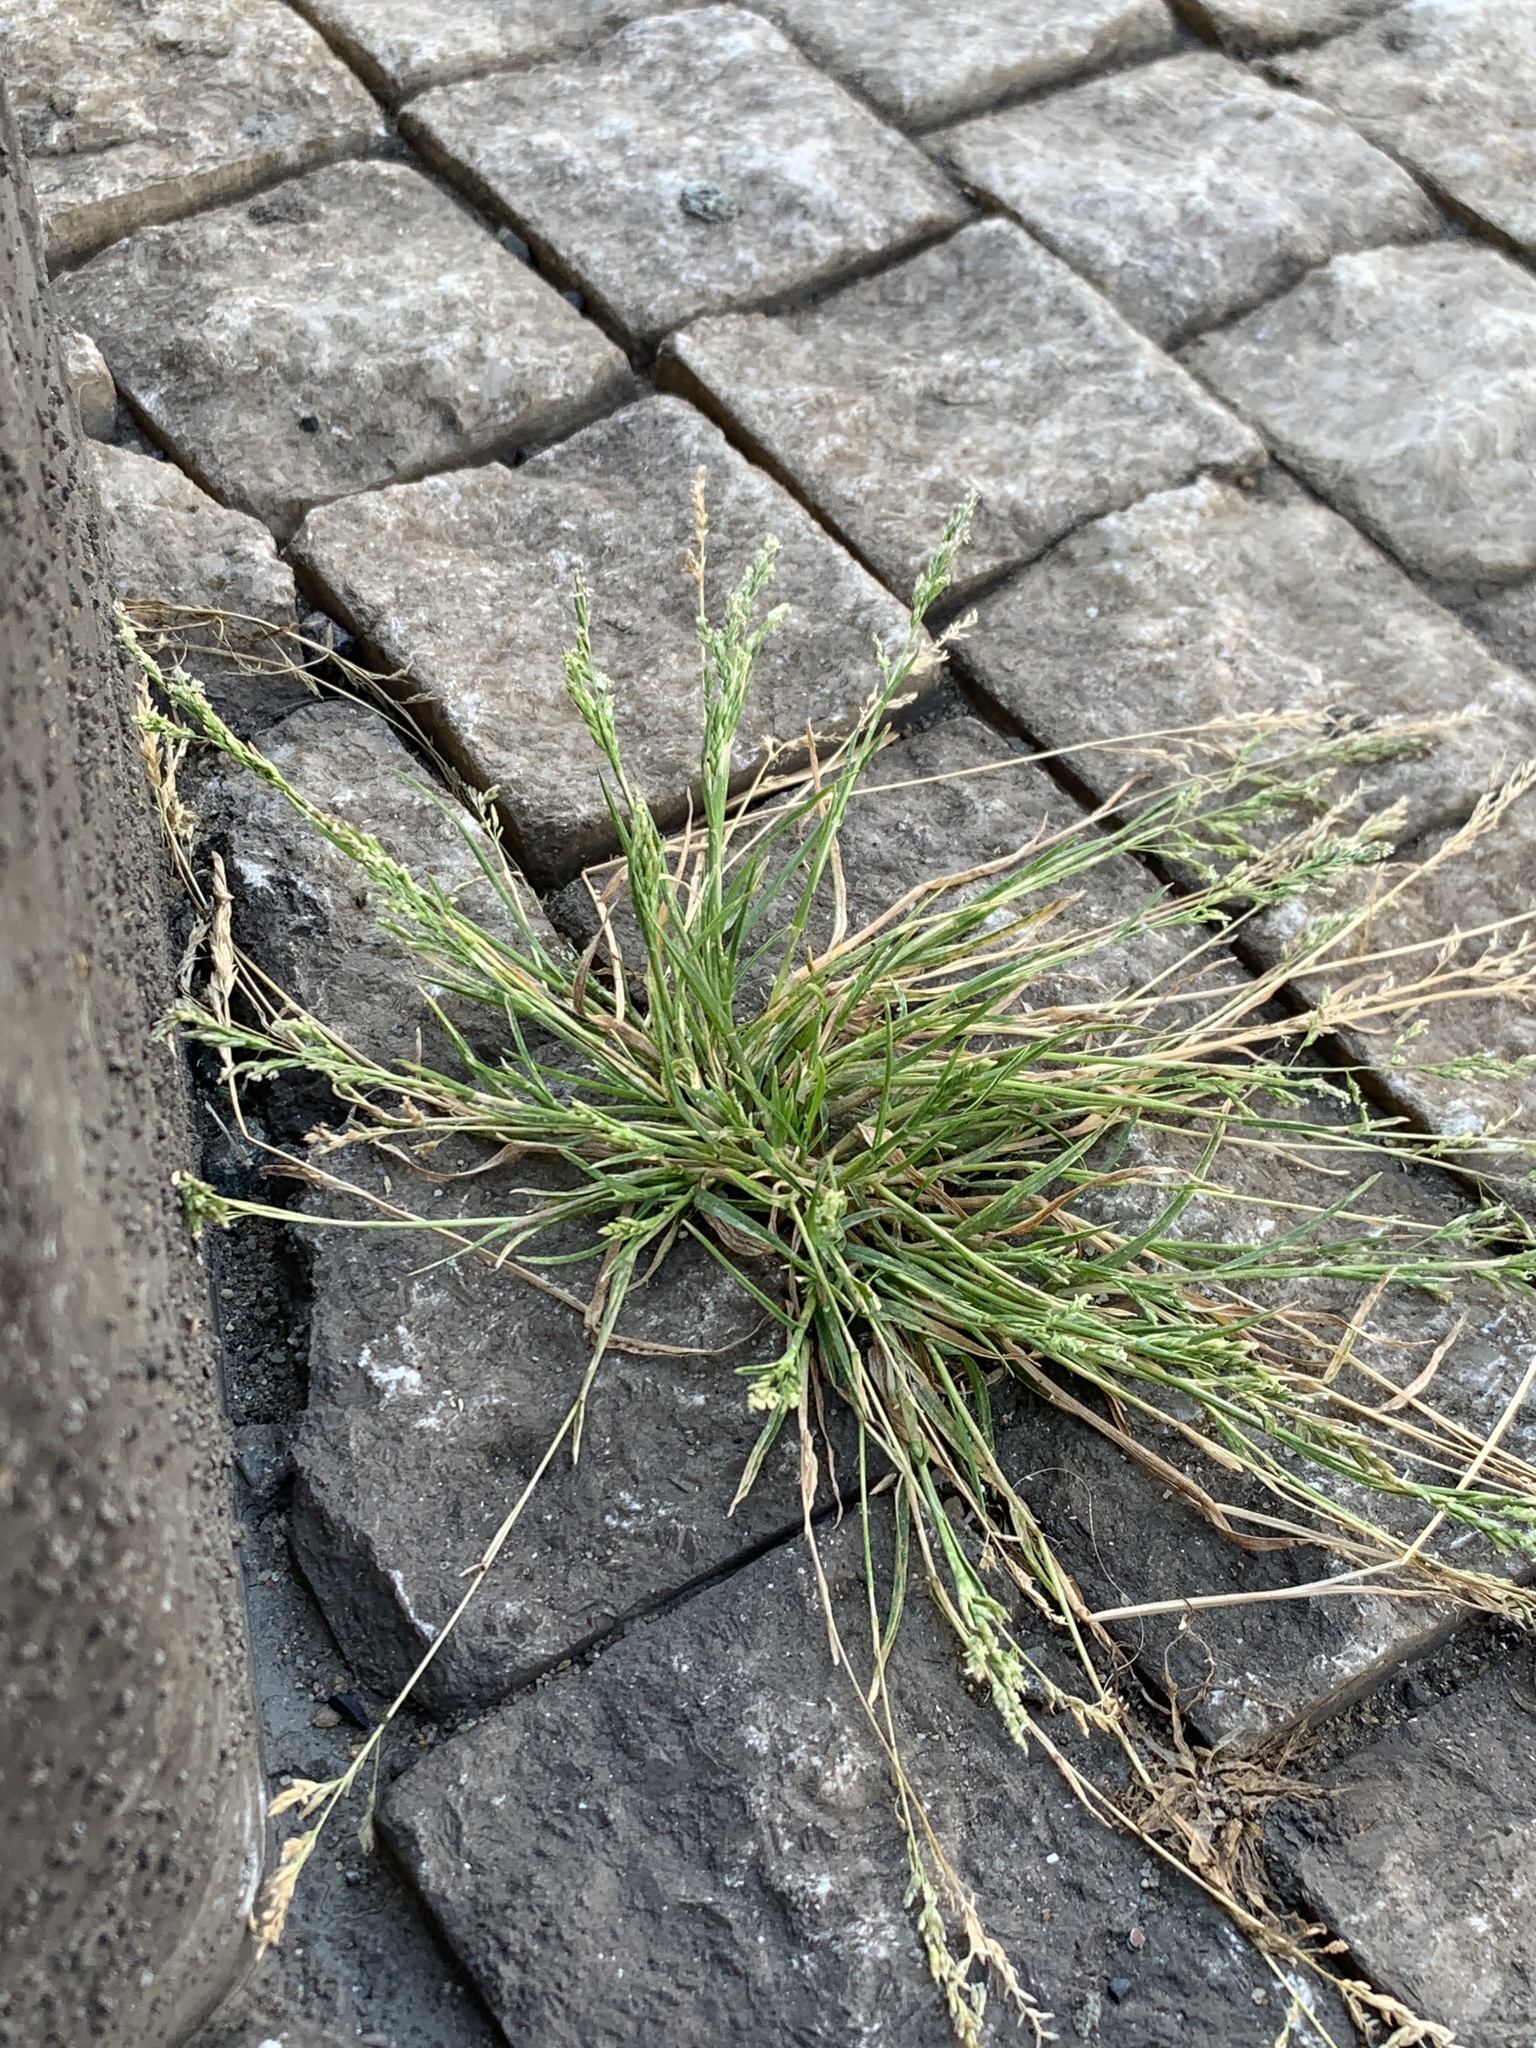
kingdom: Plantae
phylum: Tracheophyta
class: Liliopsida
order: Poales
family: Poaceae
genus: Poa
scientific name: Poa annua
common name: Annual bluegrass
